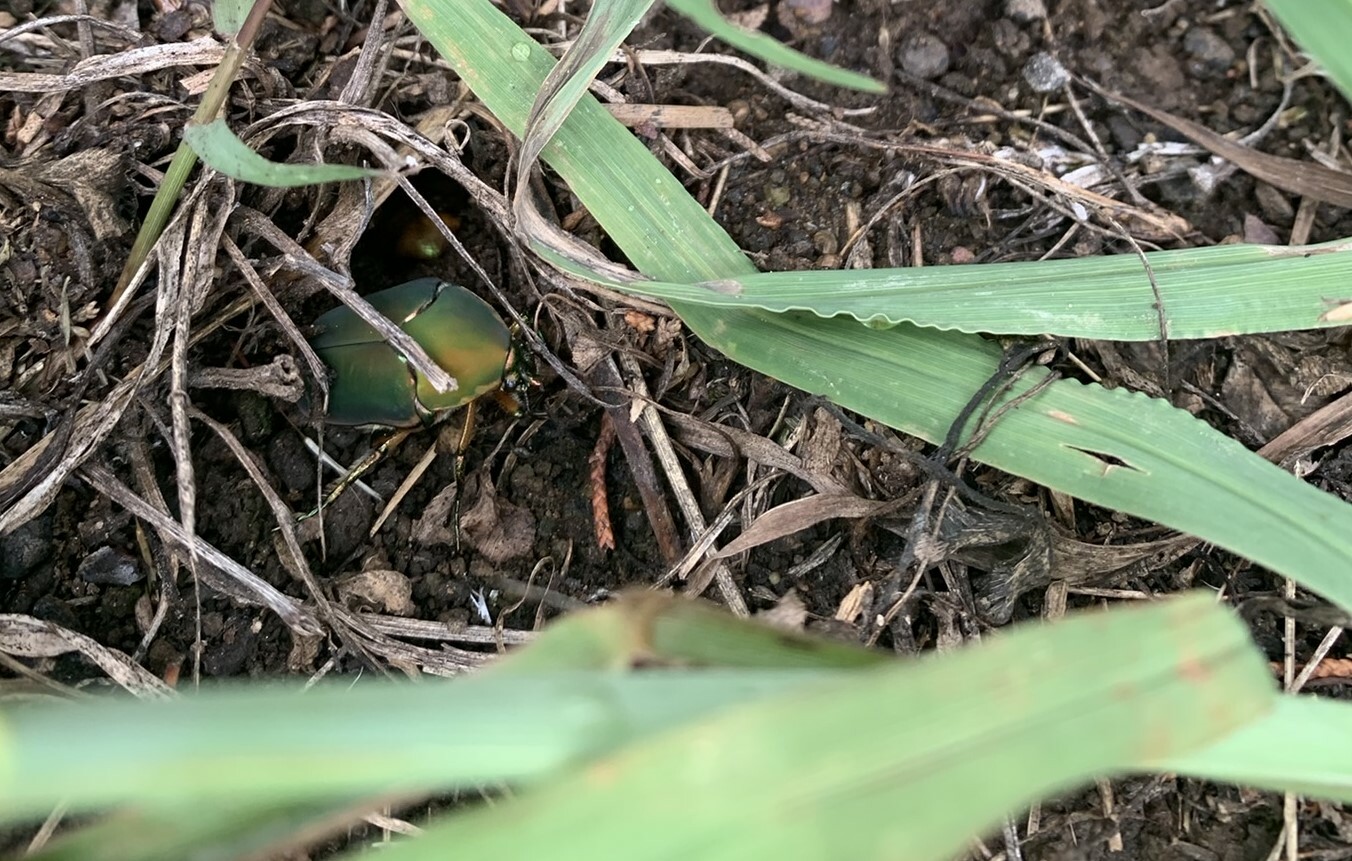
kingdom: Animalia
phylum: Arthropoda
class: Insecta
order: Coleoptera
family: Scarabaeidae
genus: Cotinis
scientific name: Cotinis nitida
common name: Common green june beetle
